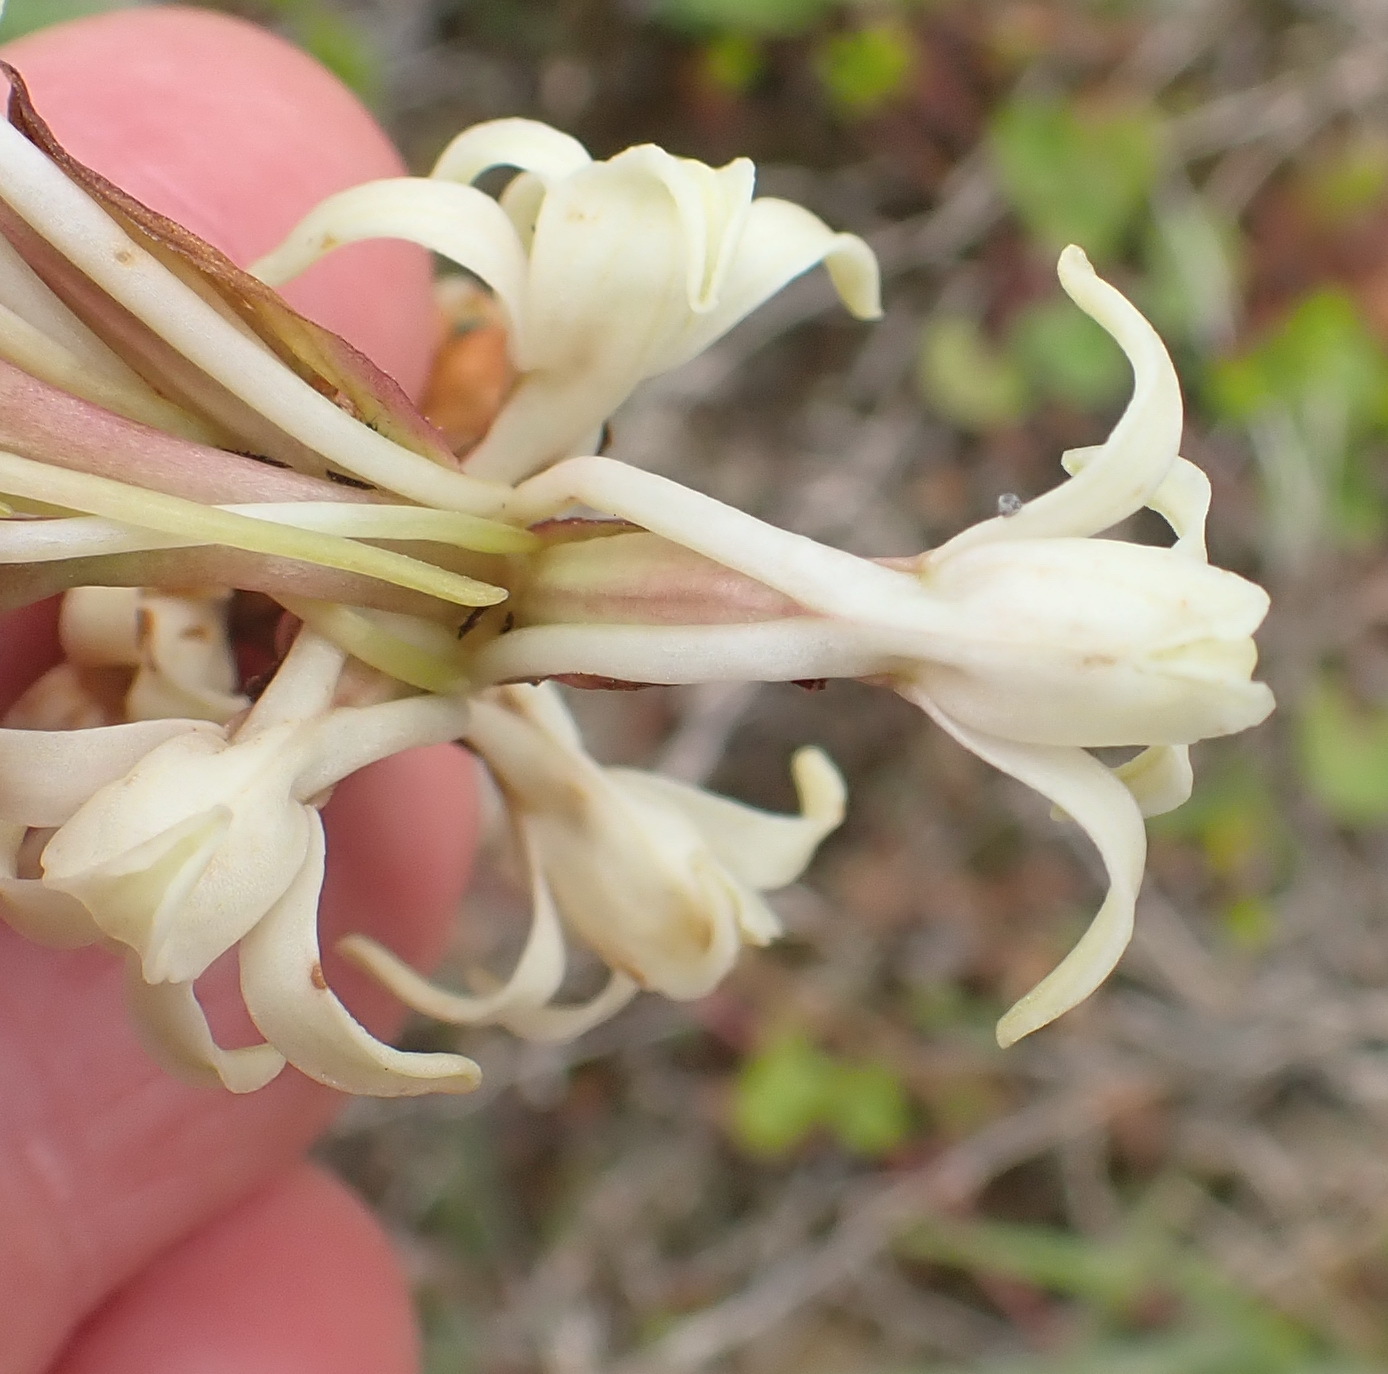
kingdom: Plantae
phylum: Tracheophyta
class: Liliopsida
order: Asparagales
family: Orchidaceae
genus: Satyrium
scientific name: Satyrium stenopetalum
